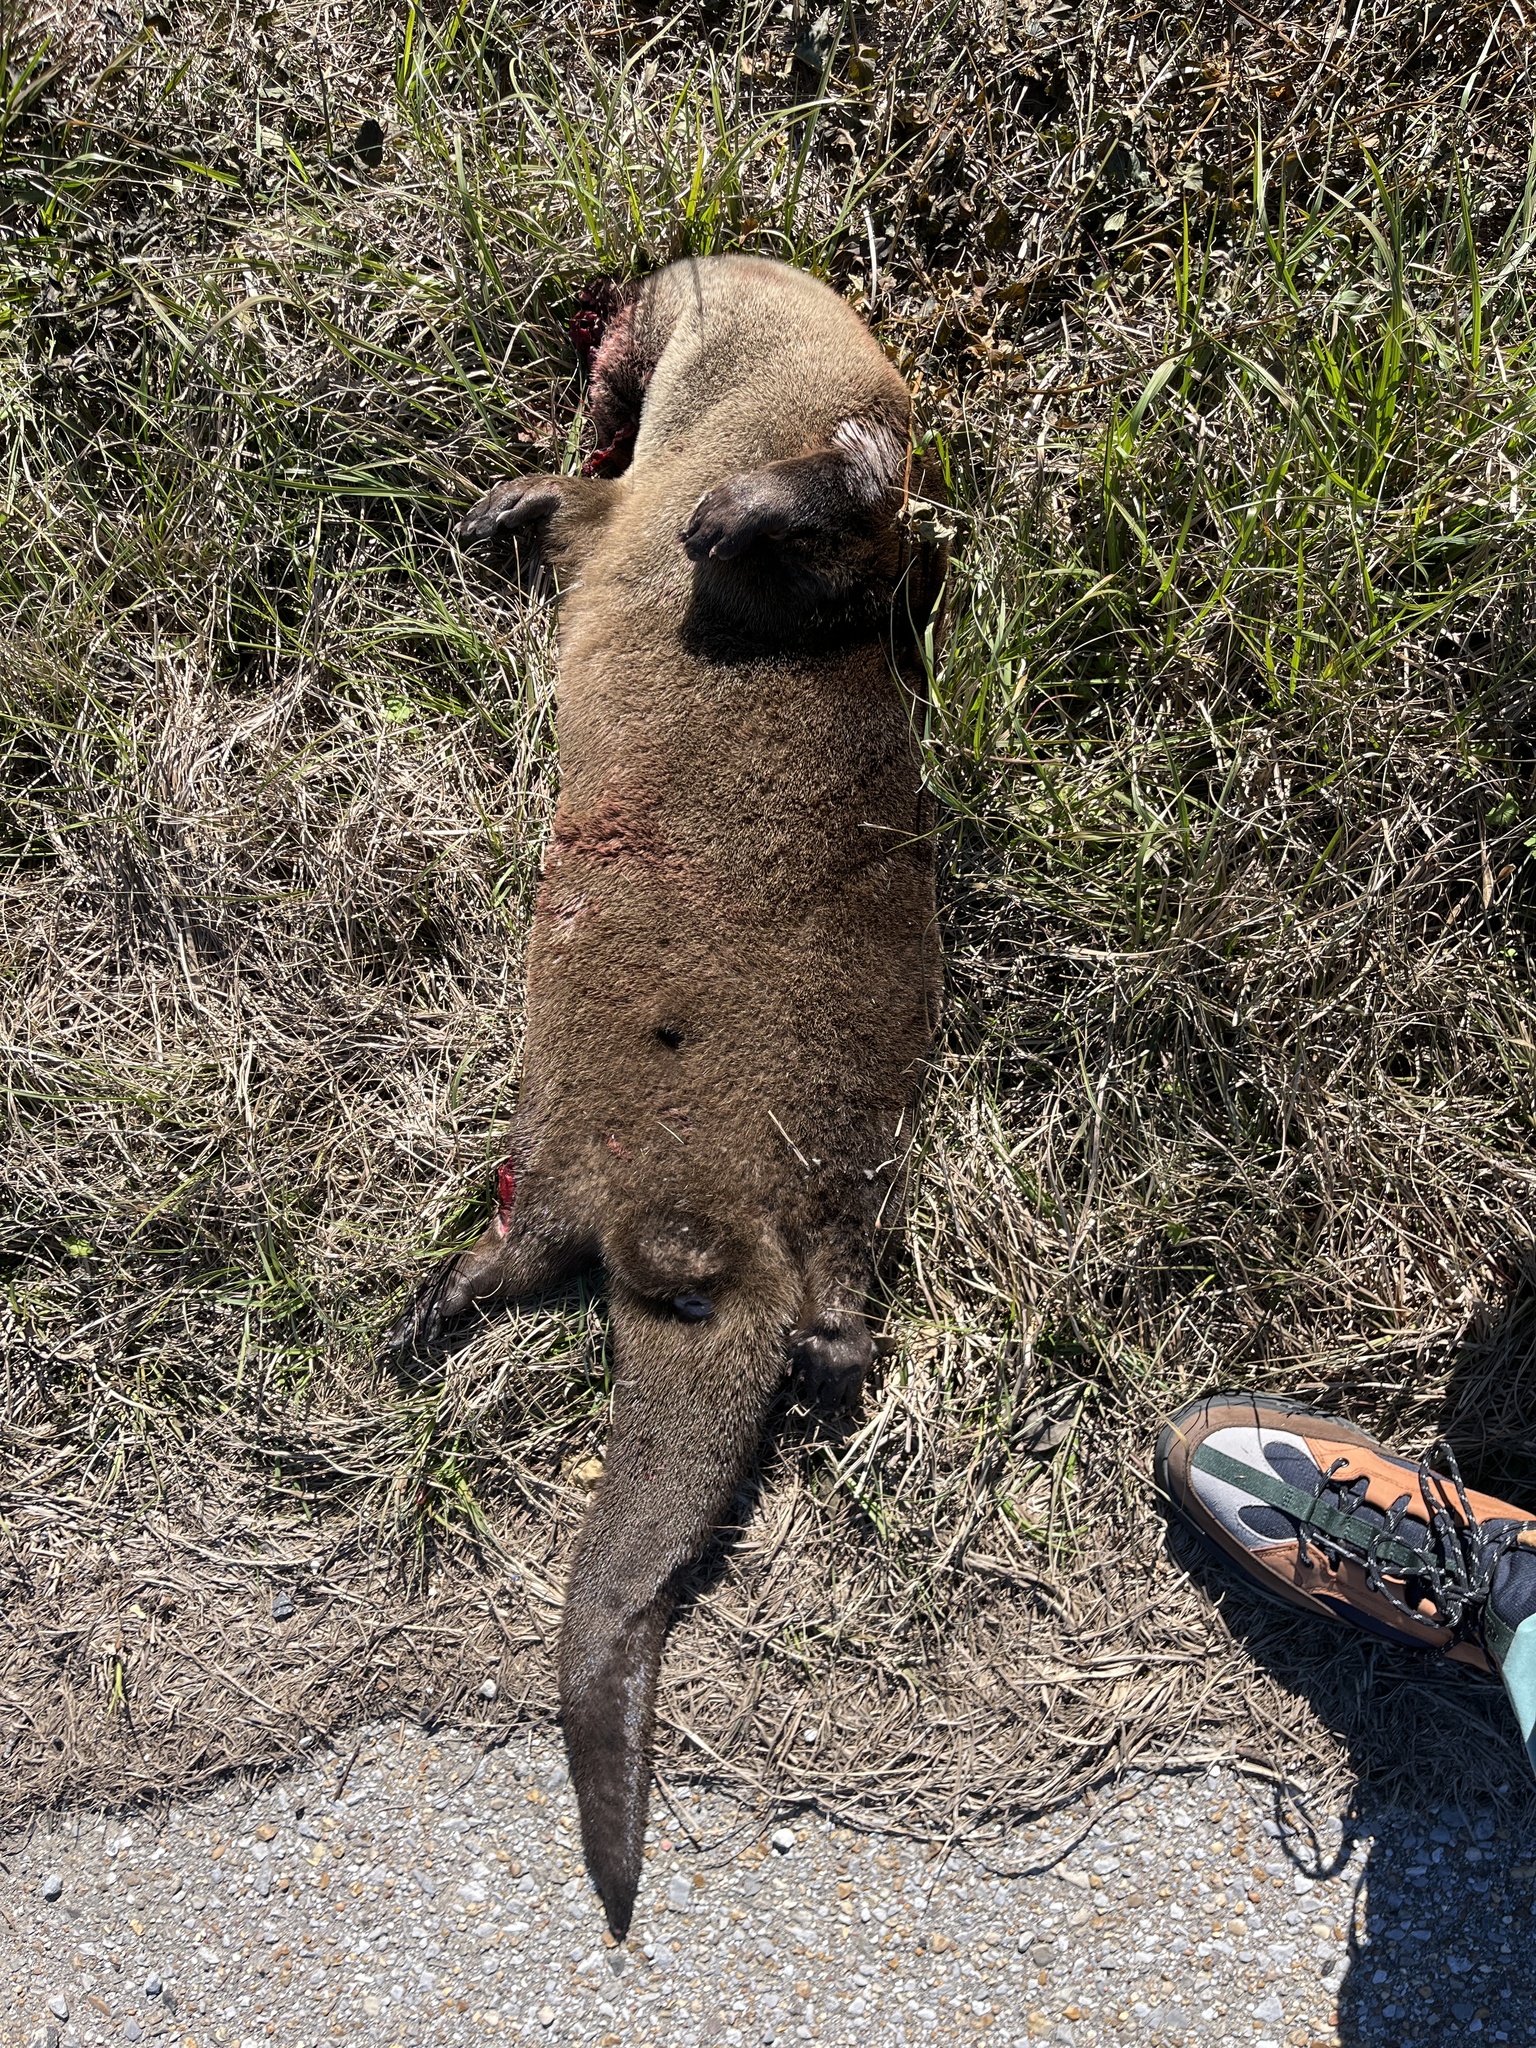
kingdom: Animalia
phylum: Chordata
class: Mammalia
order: Carnivora
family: Mustelidae
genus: Lontra
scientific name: Lontra canadensis
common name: North american river otter
